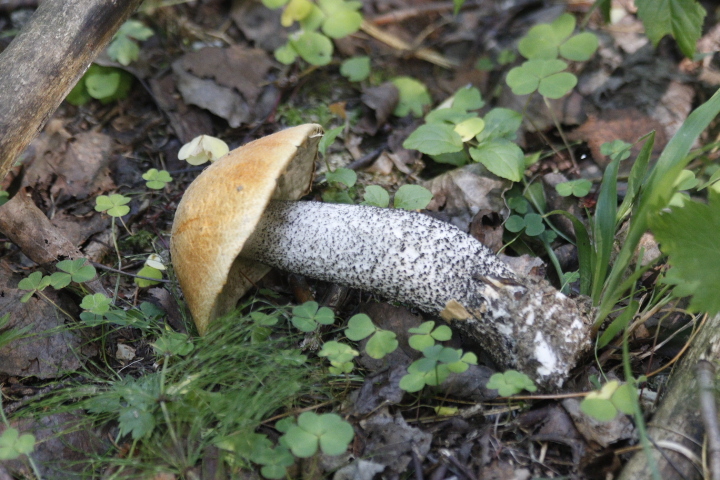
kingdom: Fungi
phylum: Basidiomycota
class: Agaricomycetes
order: Boletales
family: Boletaceae
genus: Leccinum
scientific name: Leccinum versipelle
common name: Orange birch bolete
